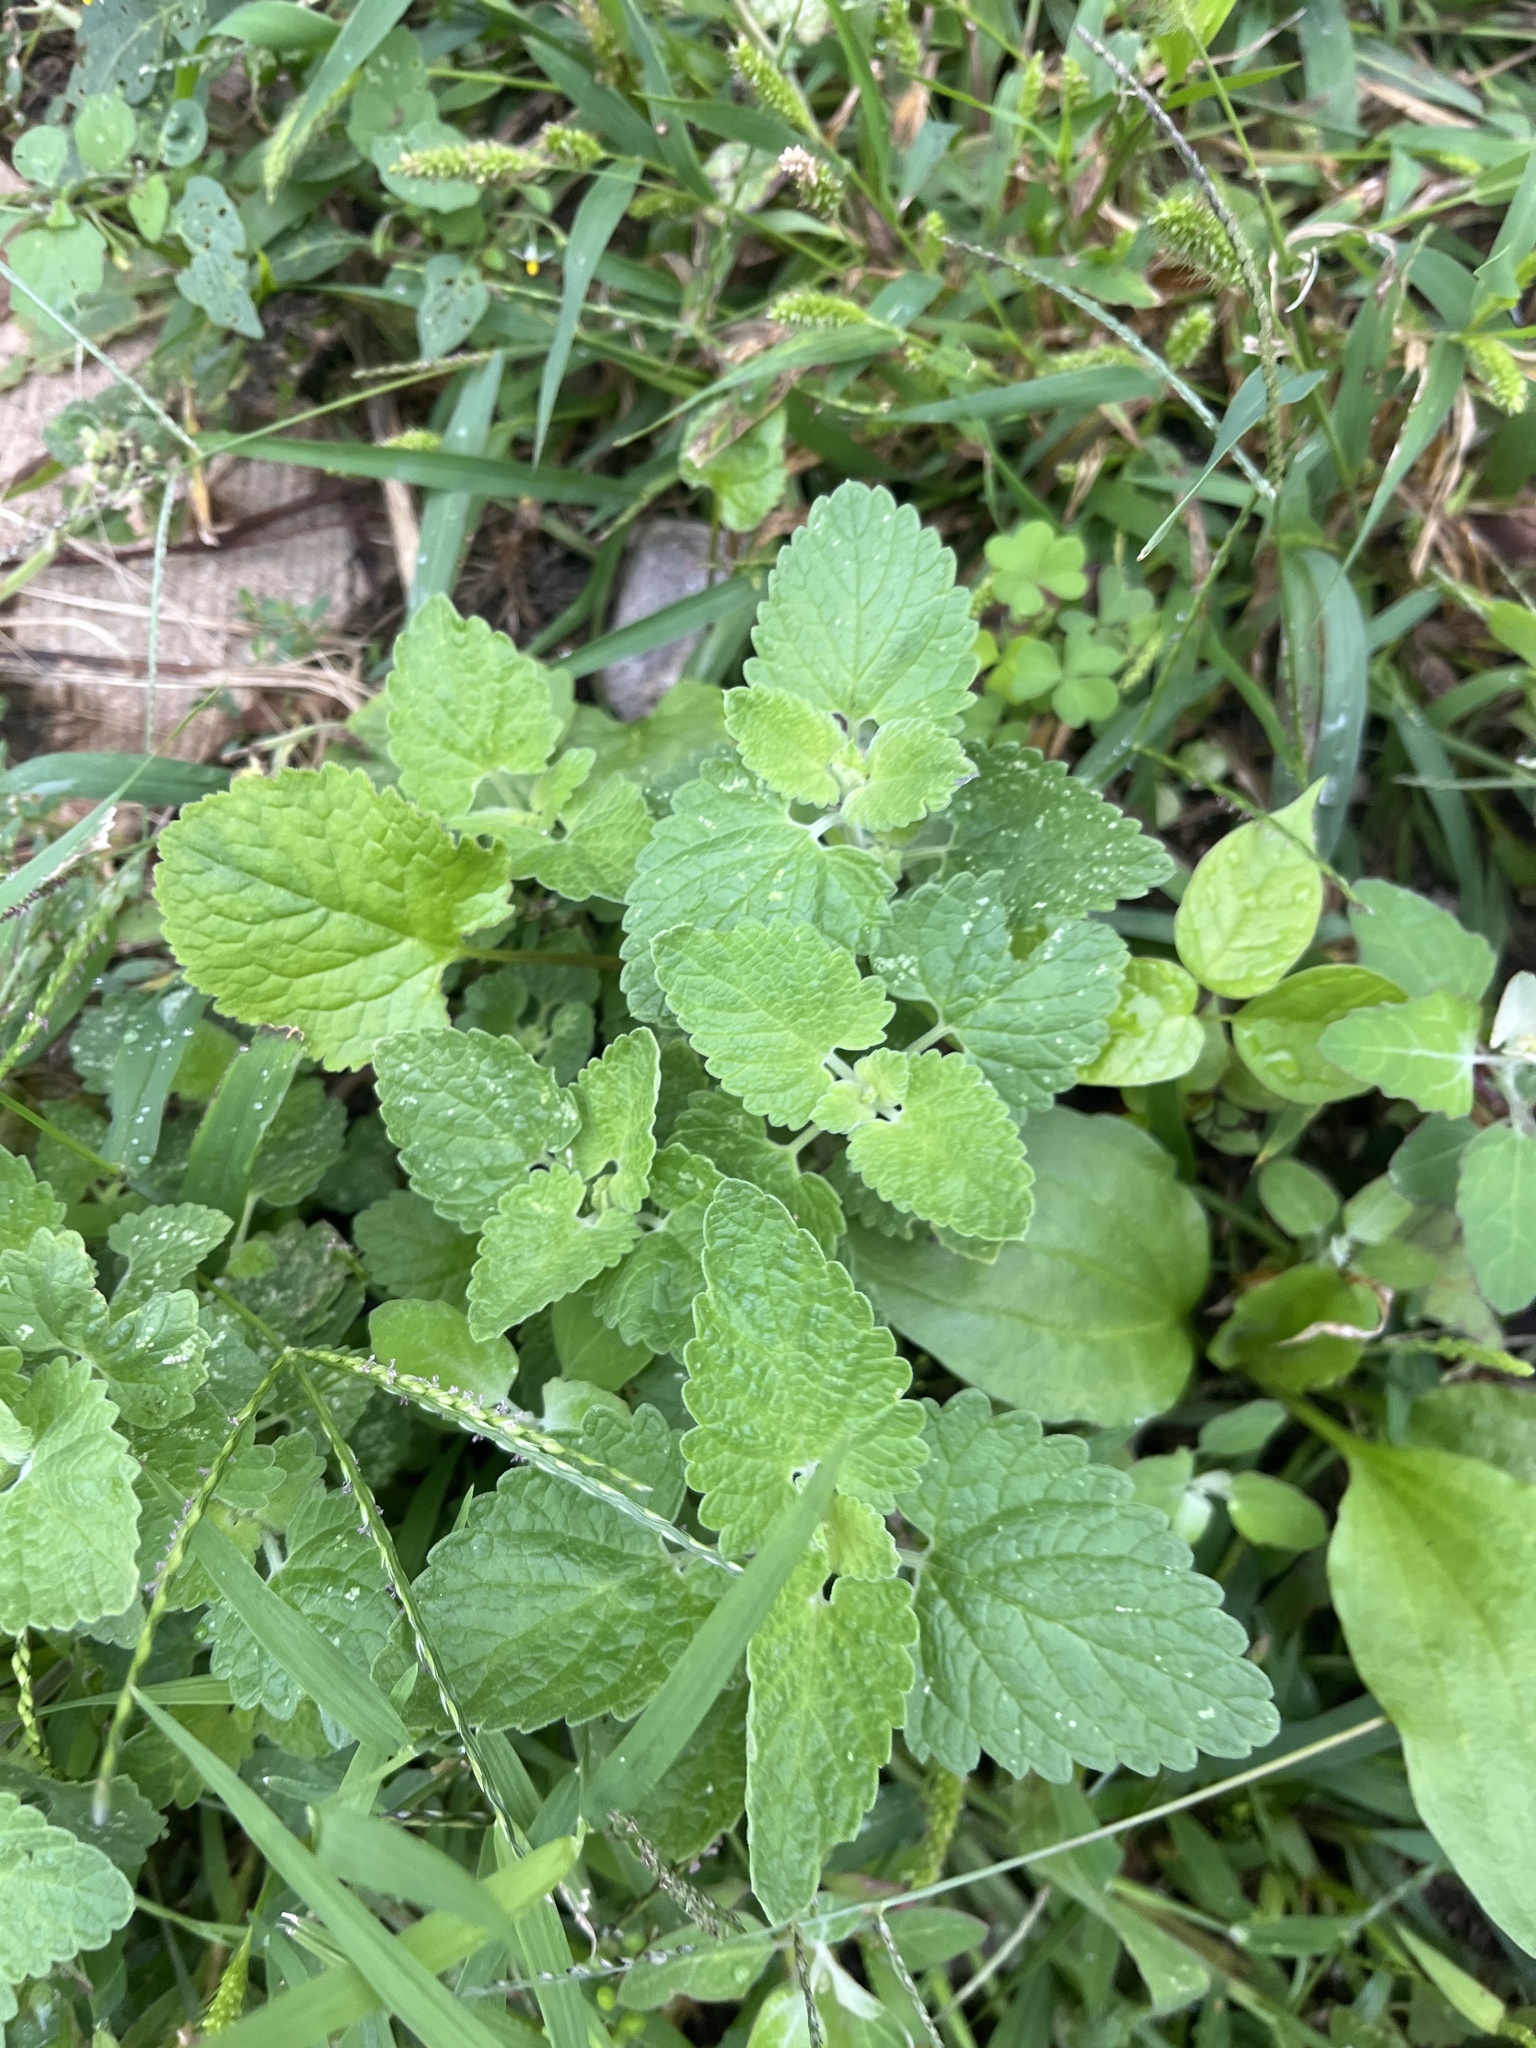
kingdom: Plantae
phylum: Tracheophyta
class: Magnoliopsida
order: Lamiales
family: Lamiaceae
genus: Nepeta
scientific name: Nepeta cataria
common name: Catnip
